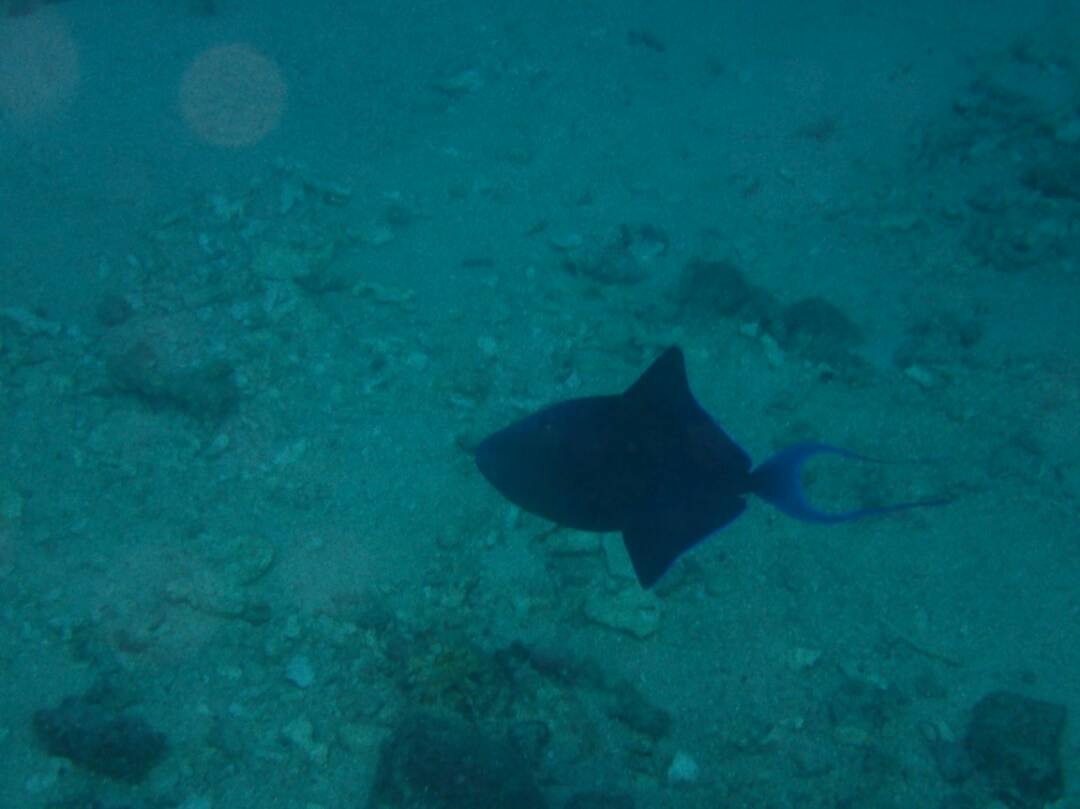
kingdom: Animalia
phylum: Chordata
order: Tetraodontiformes
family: Balistidae
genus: Odonus
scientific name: Odonus niger
